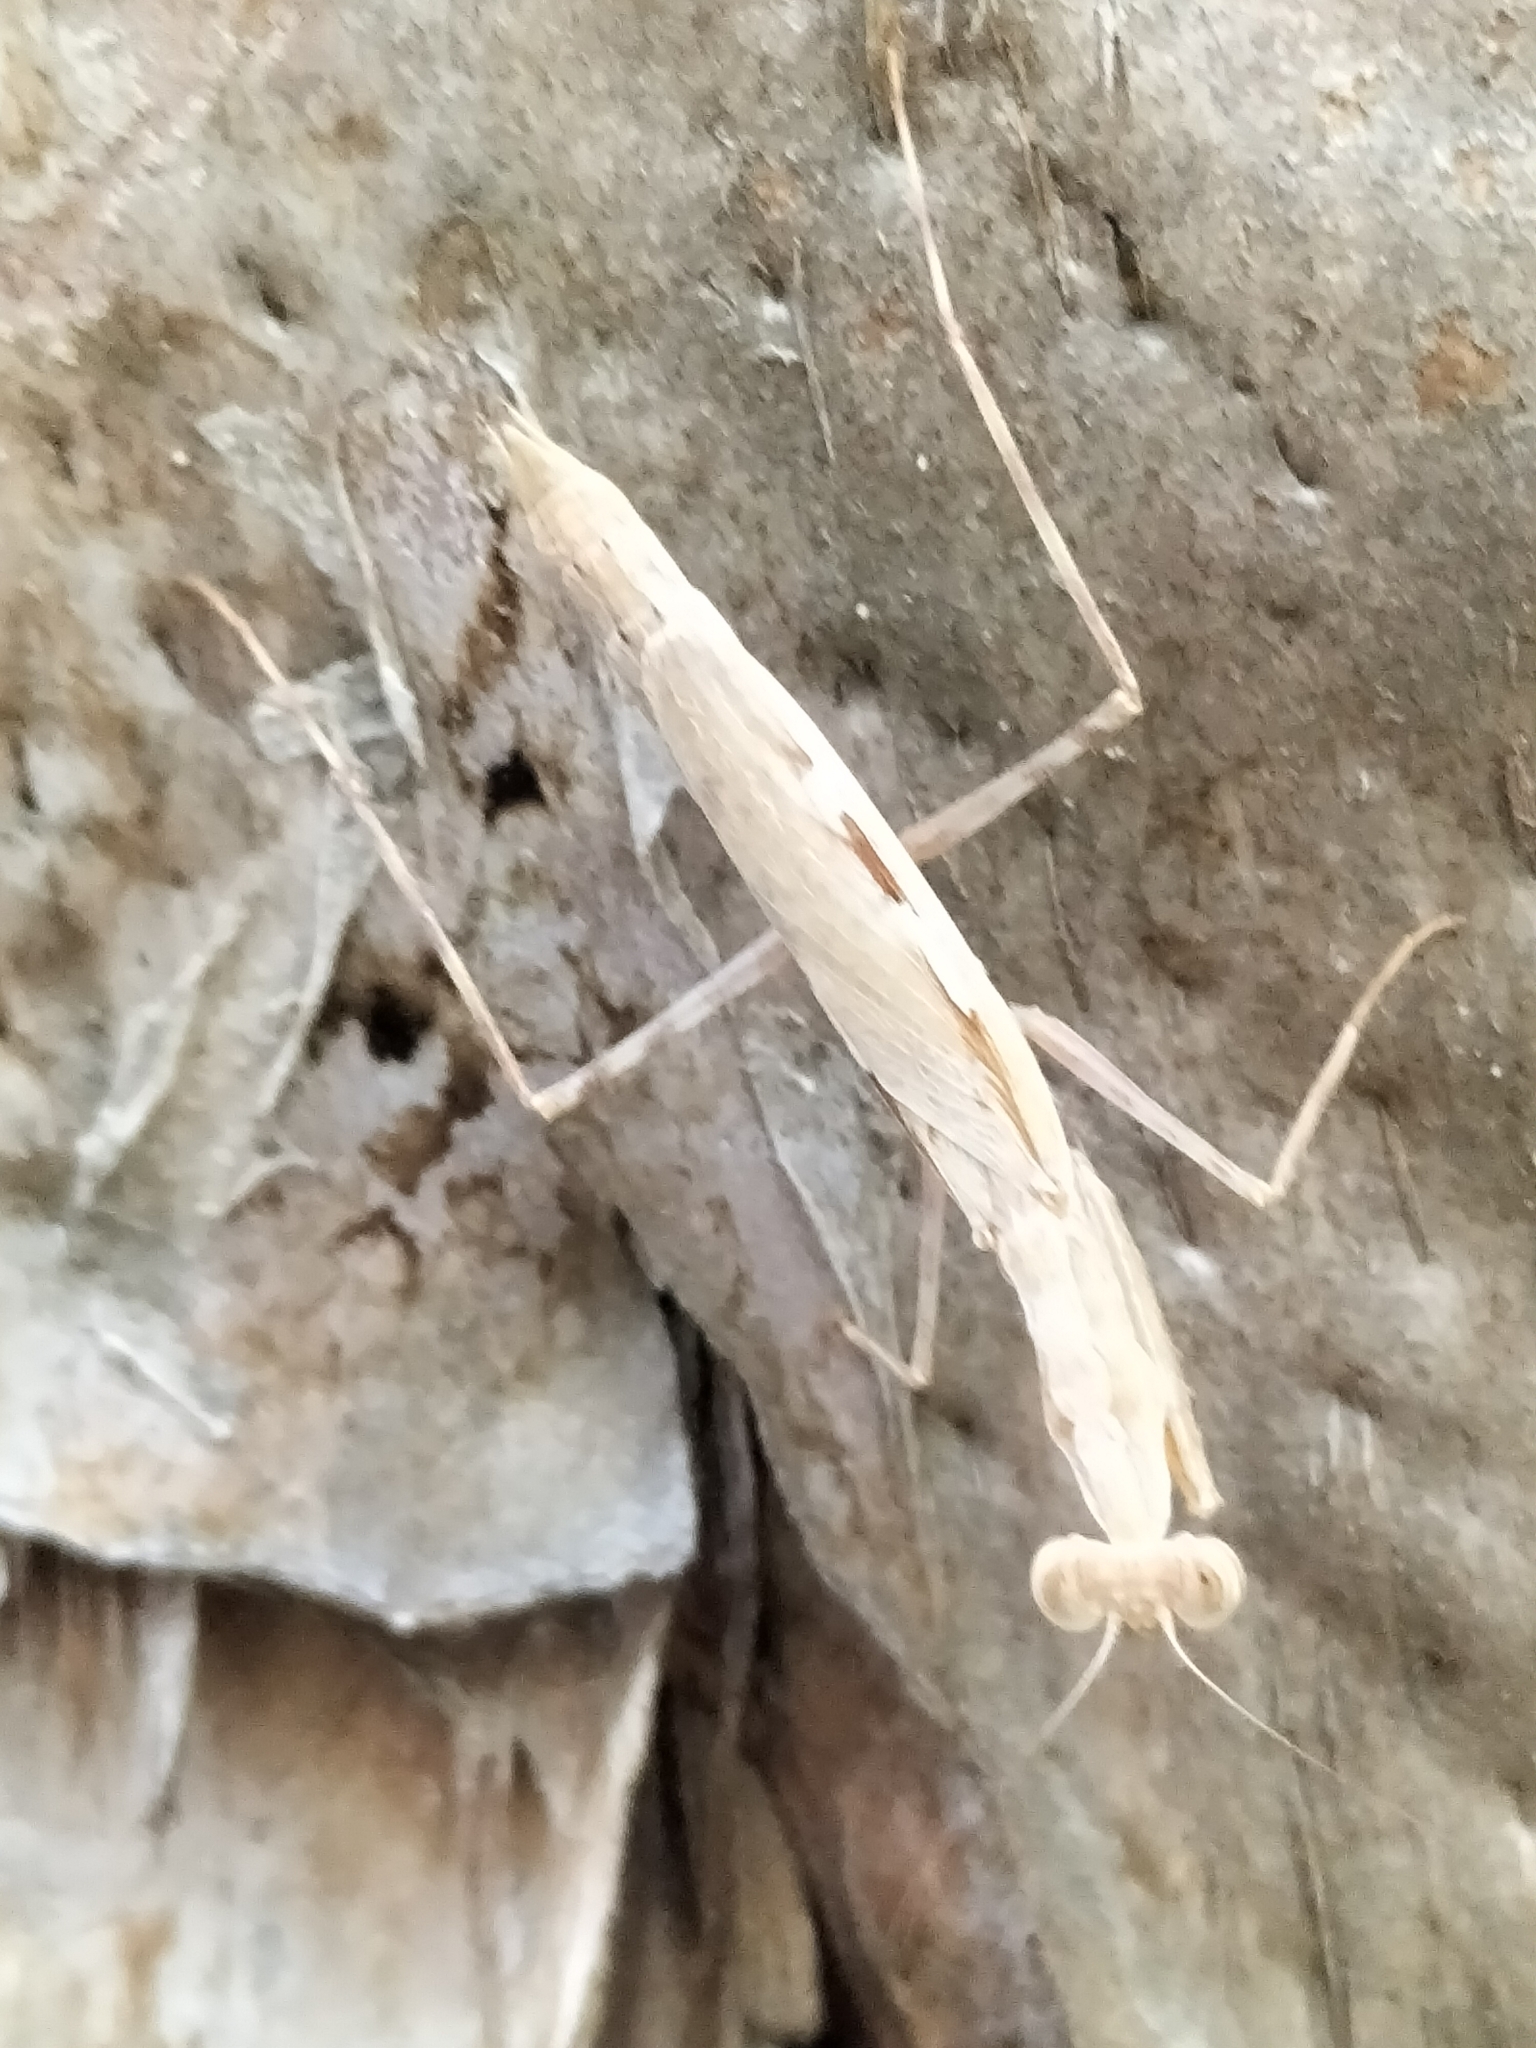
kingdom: Animalia
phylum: Arthropoda
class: Insecta
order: Mantodea
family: Nanomantidae
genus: Ima
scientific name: Ima fusca
